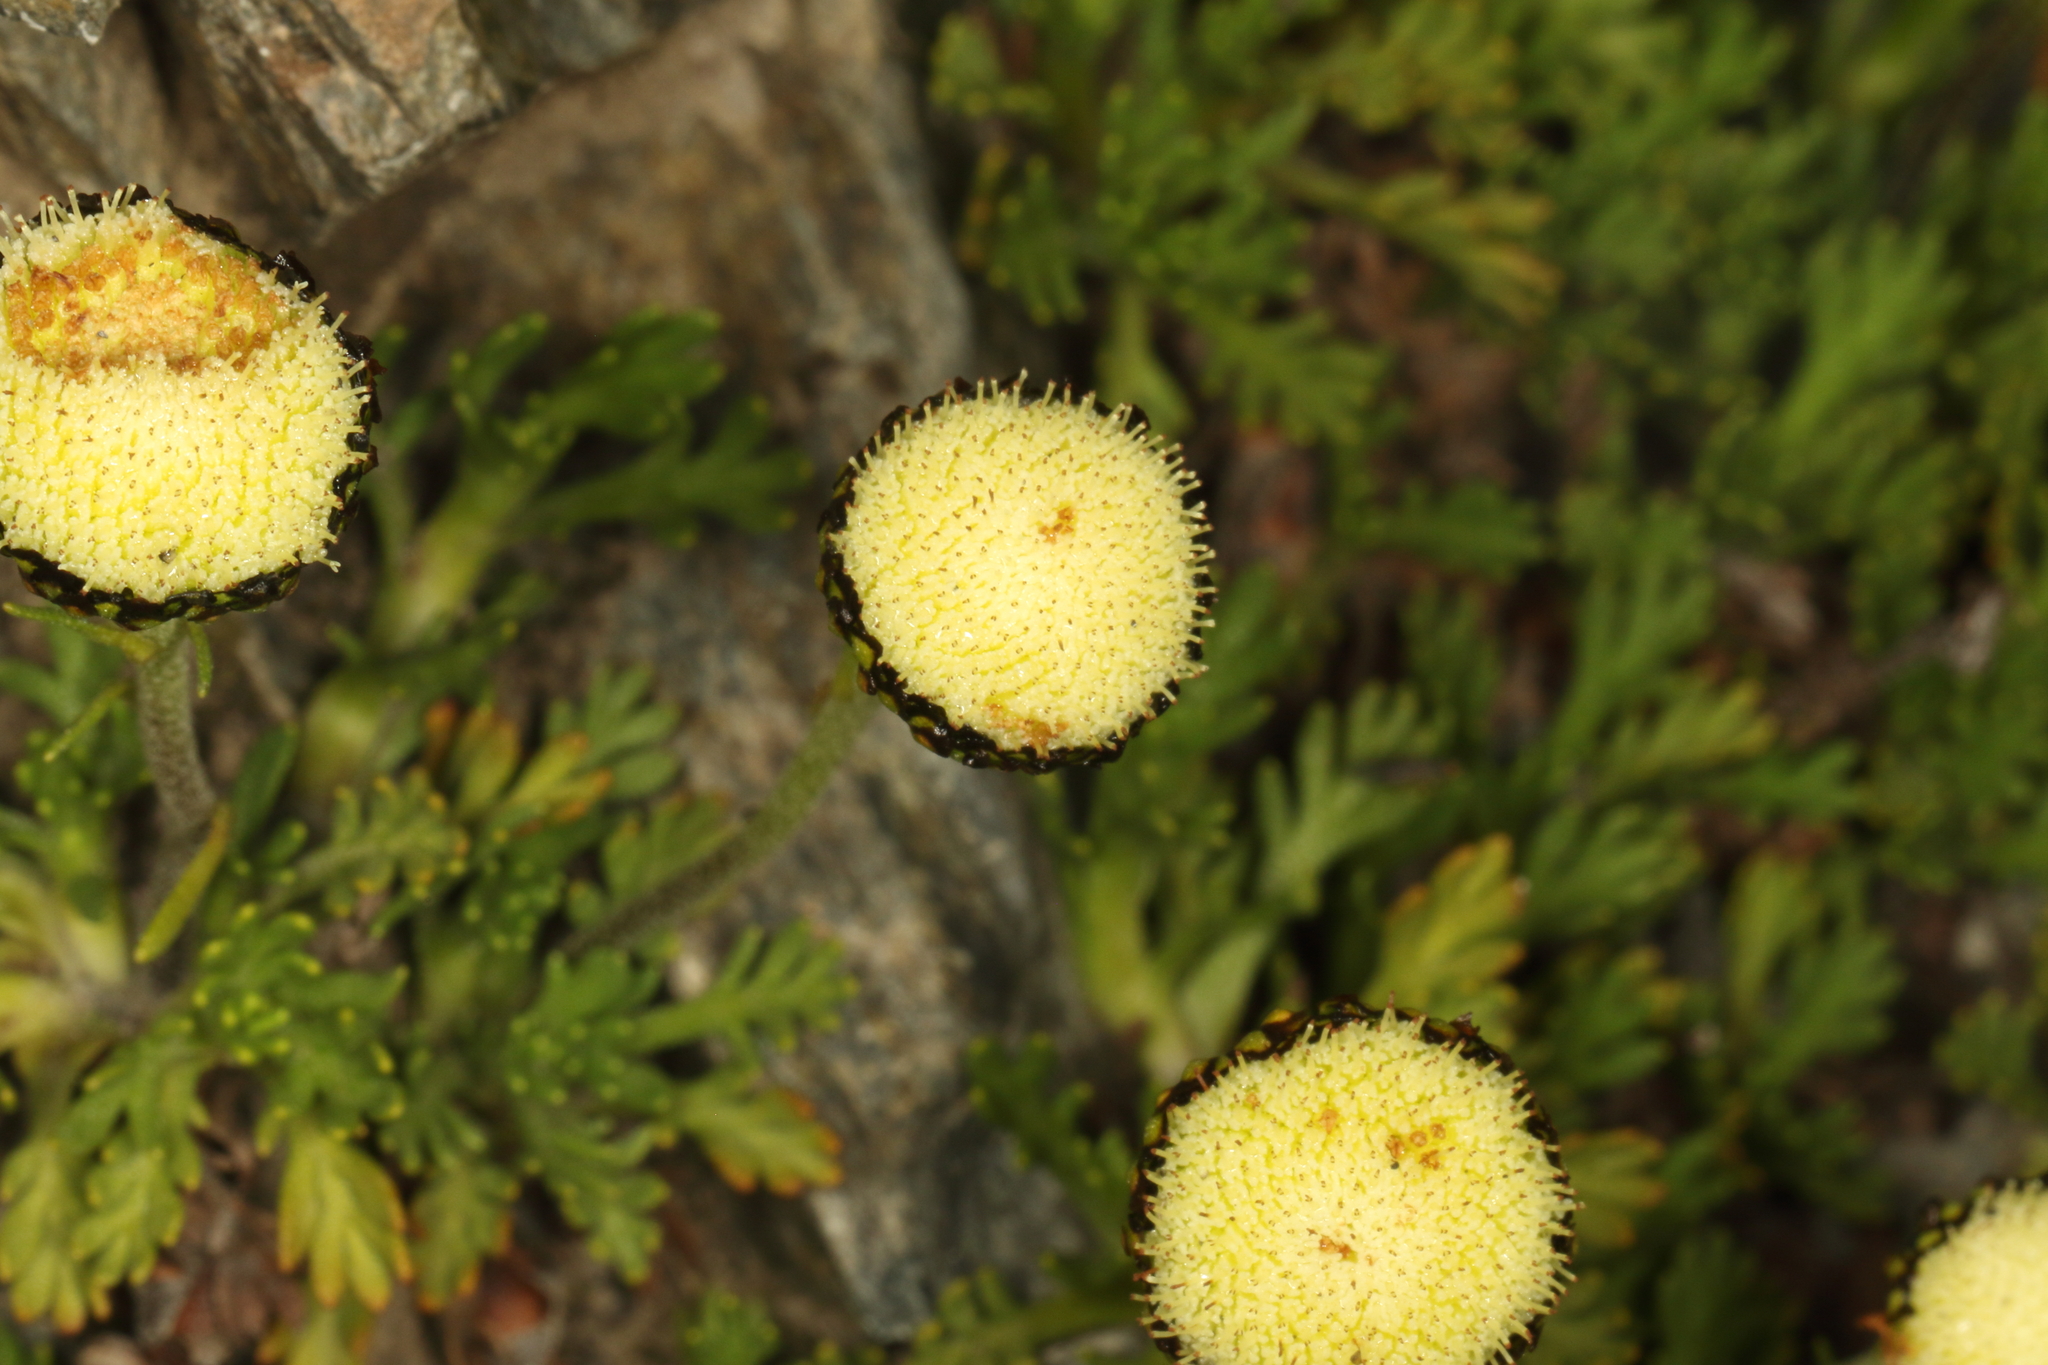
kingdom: Plantae
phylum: Tracheophyta
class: Magnoliopsida
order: Asterales
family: Asteraceae
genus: Leptinella
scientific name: Leptinella pyrethrifolia
